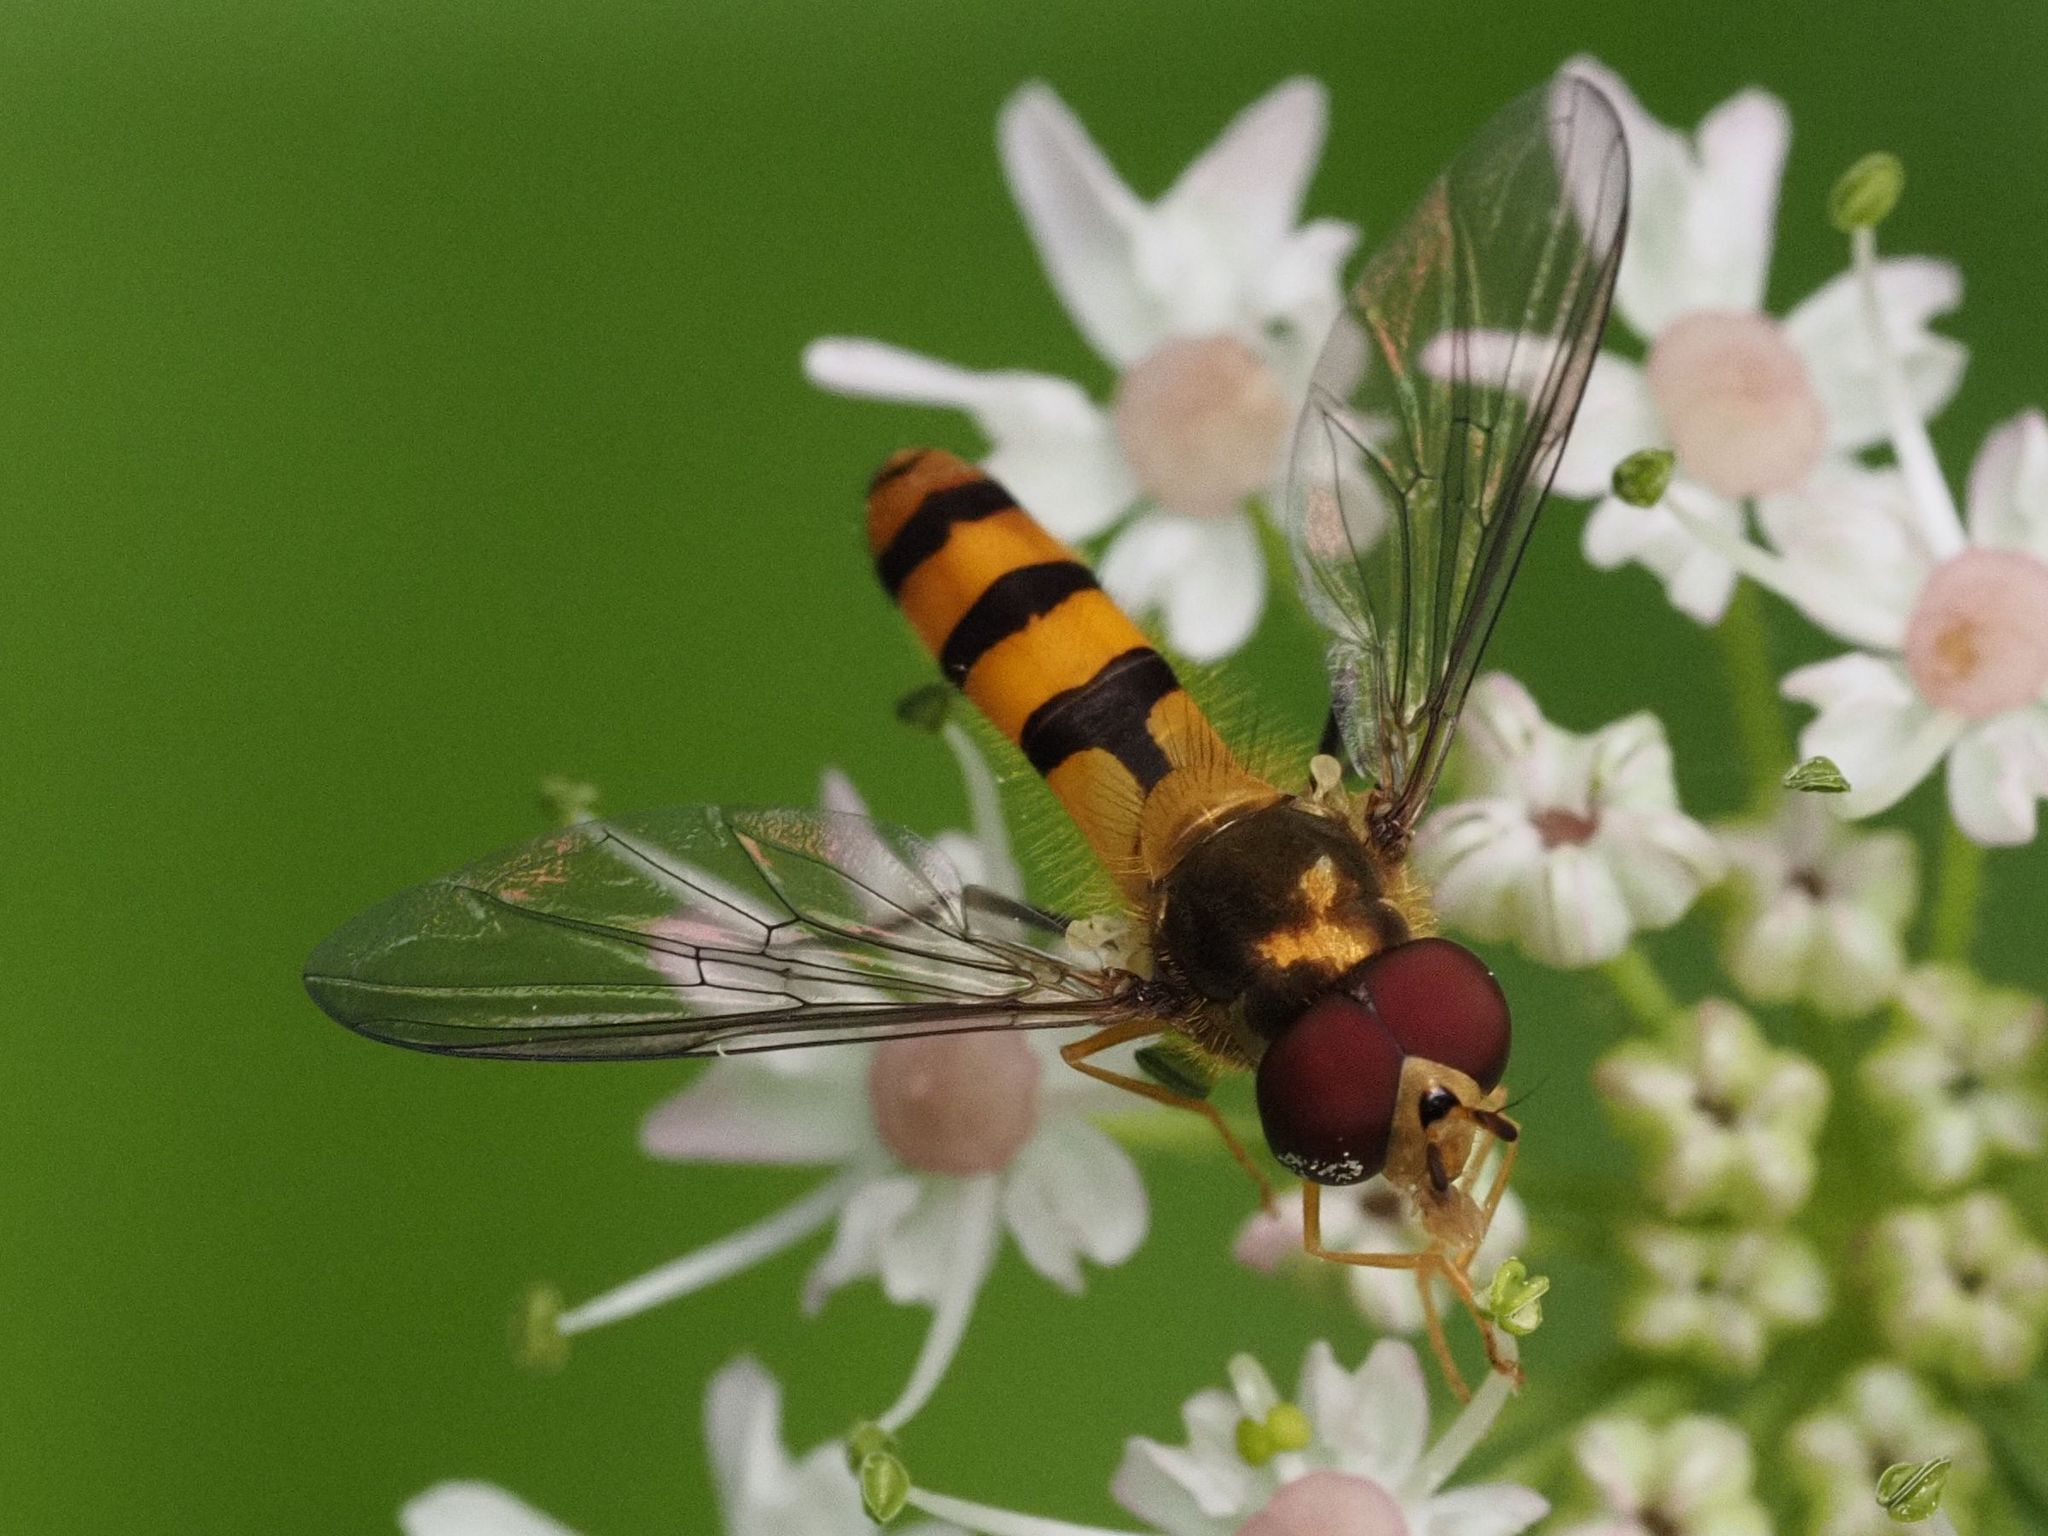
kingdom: Animalia
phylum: Arthropoda
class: Insecta
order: Diptera
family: Syrphidae
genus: Meliscaeva
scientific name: Meliscaeva cinctella
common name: American thintail fly
